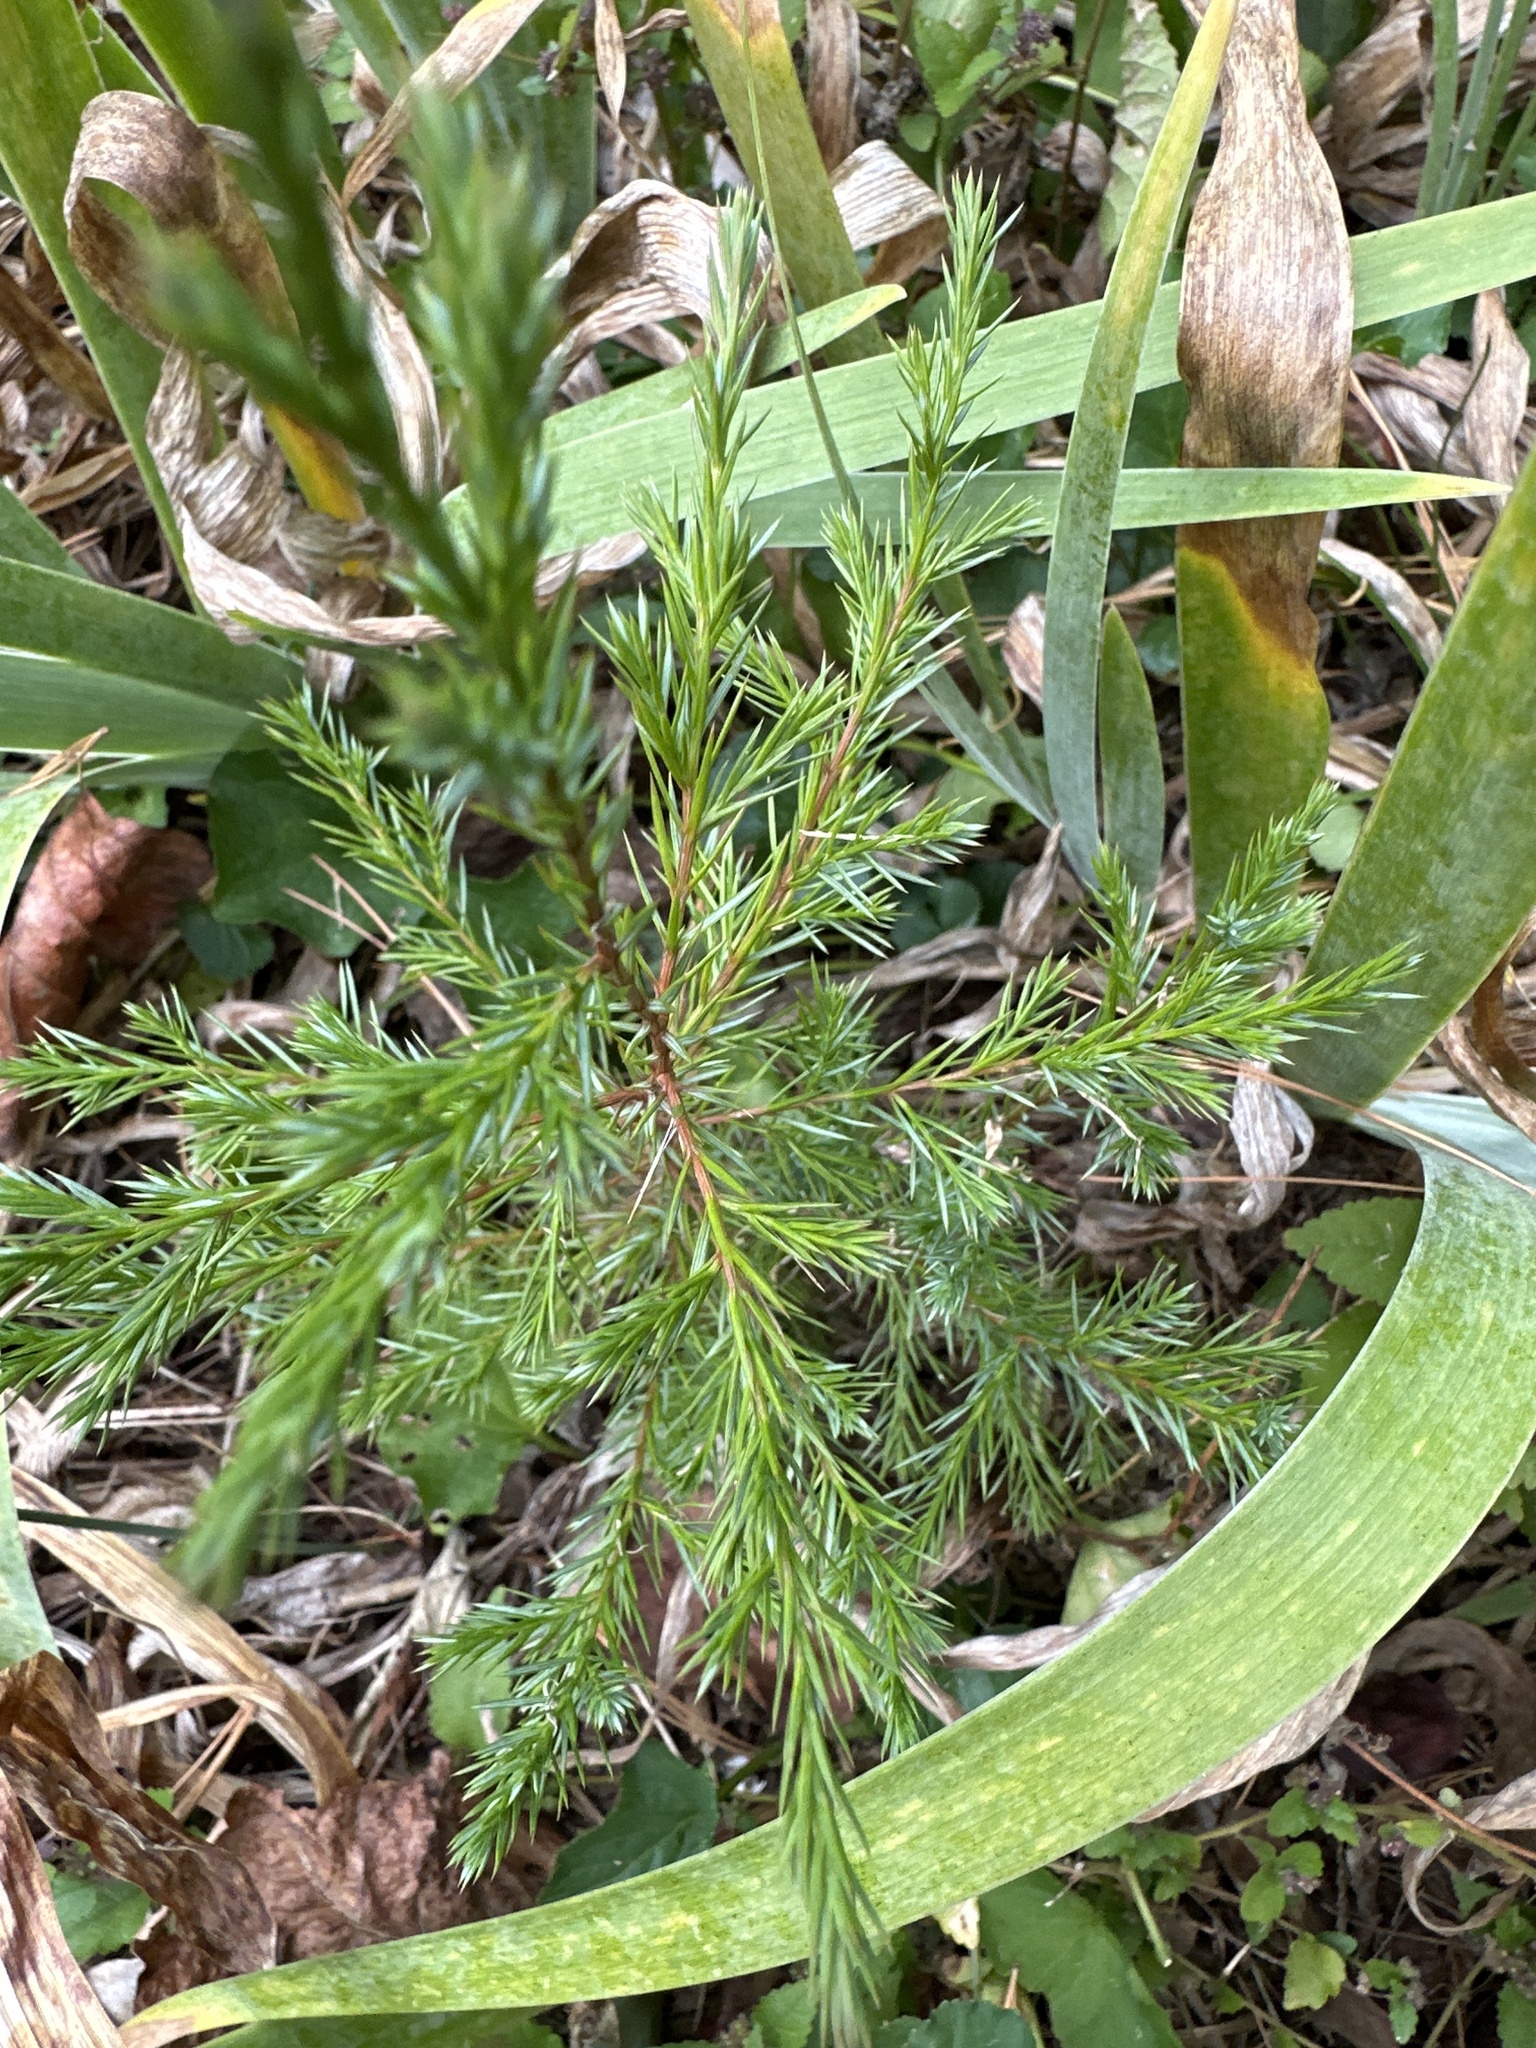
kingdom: Plantae
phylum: Tracheophyta
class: Pinopsida
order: Pinales
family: Cupressaceae
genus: Juniperus
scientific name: Juniperus virginiana
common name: Red juniper
